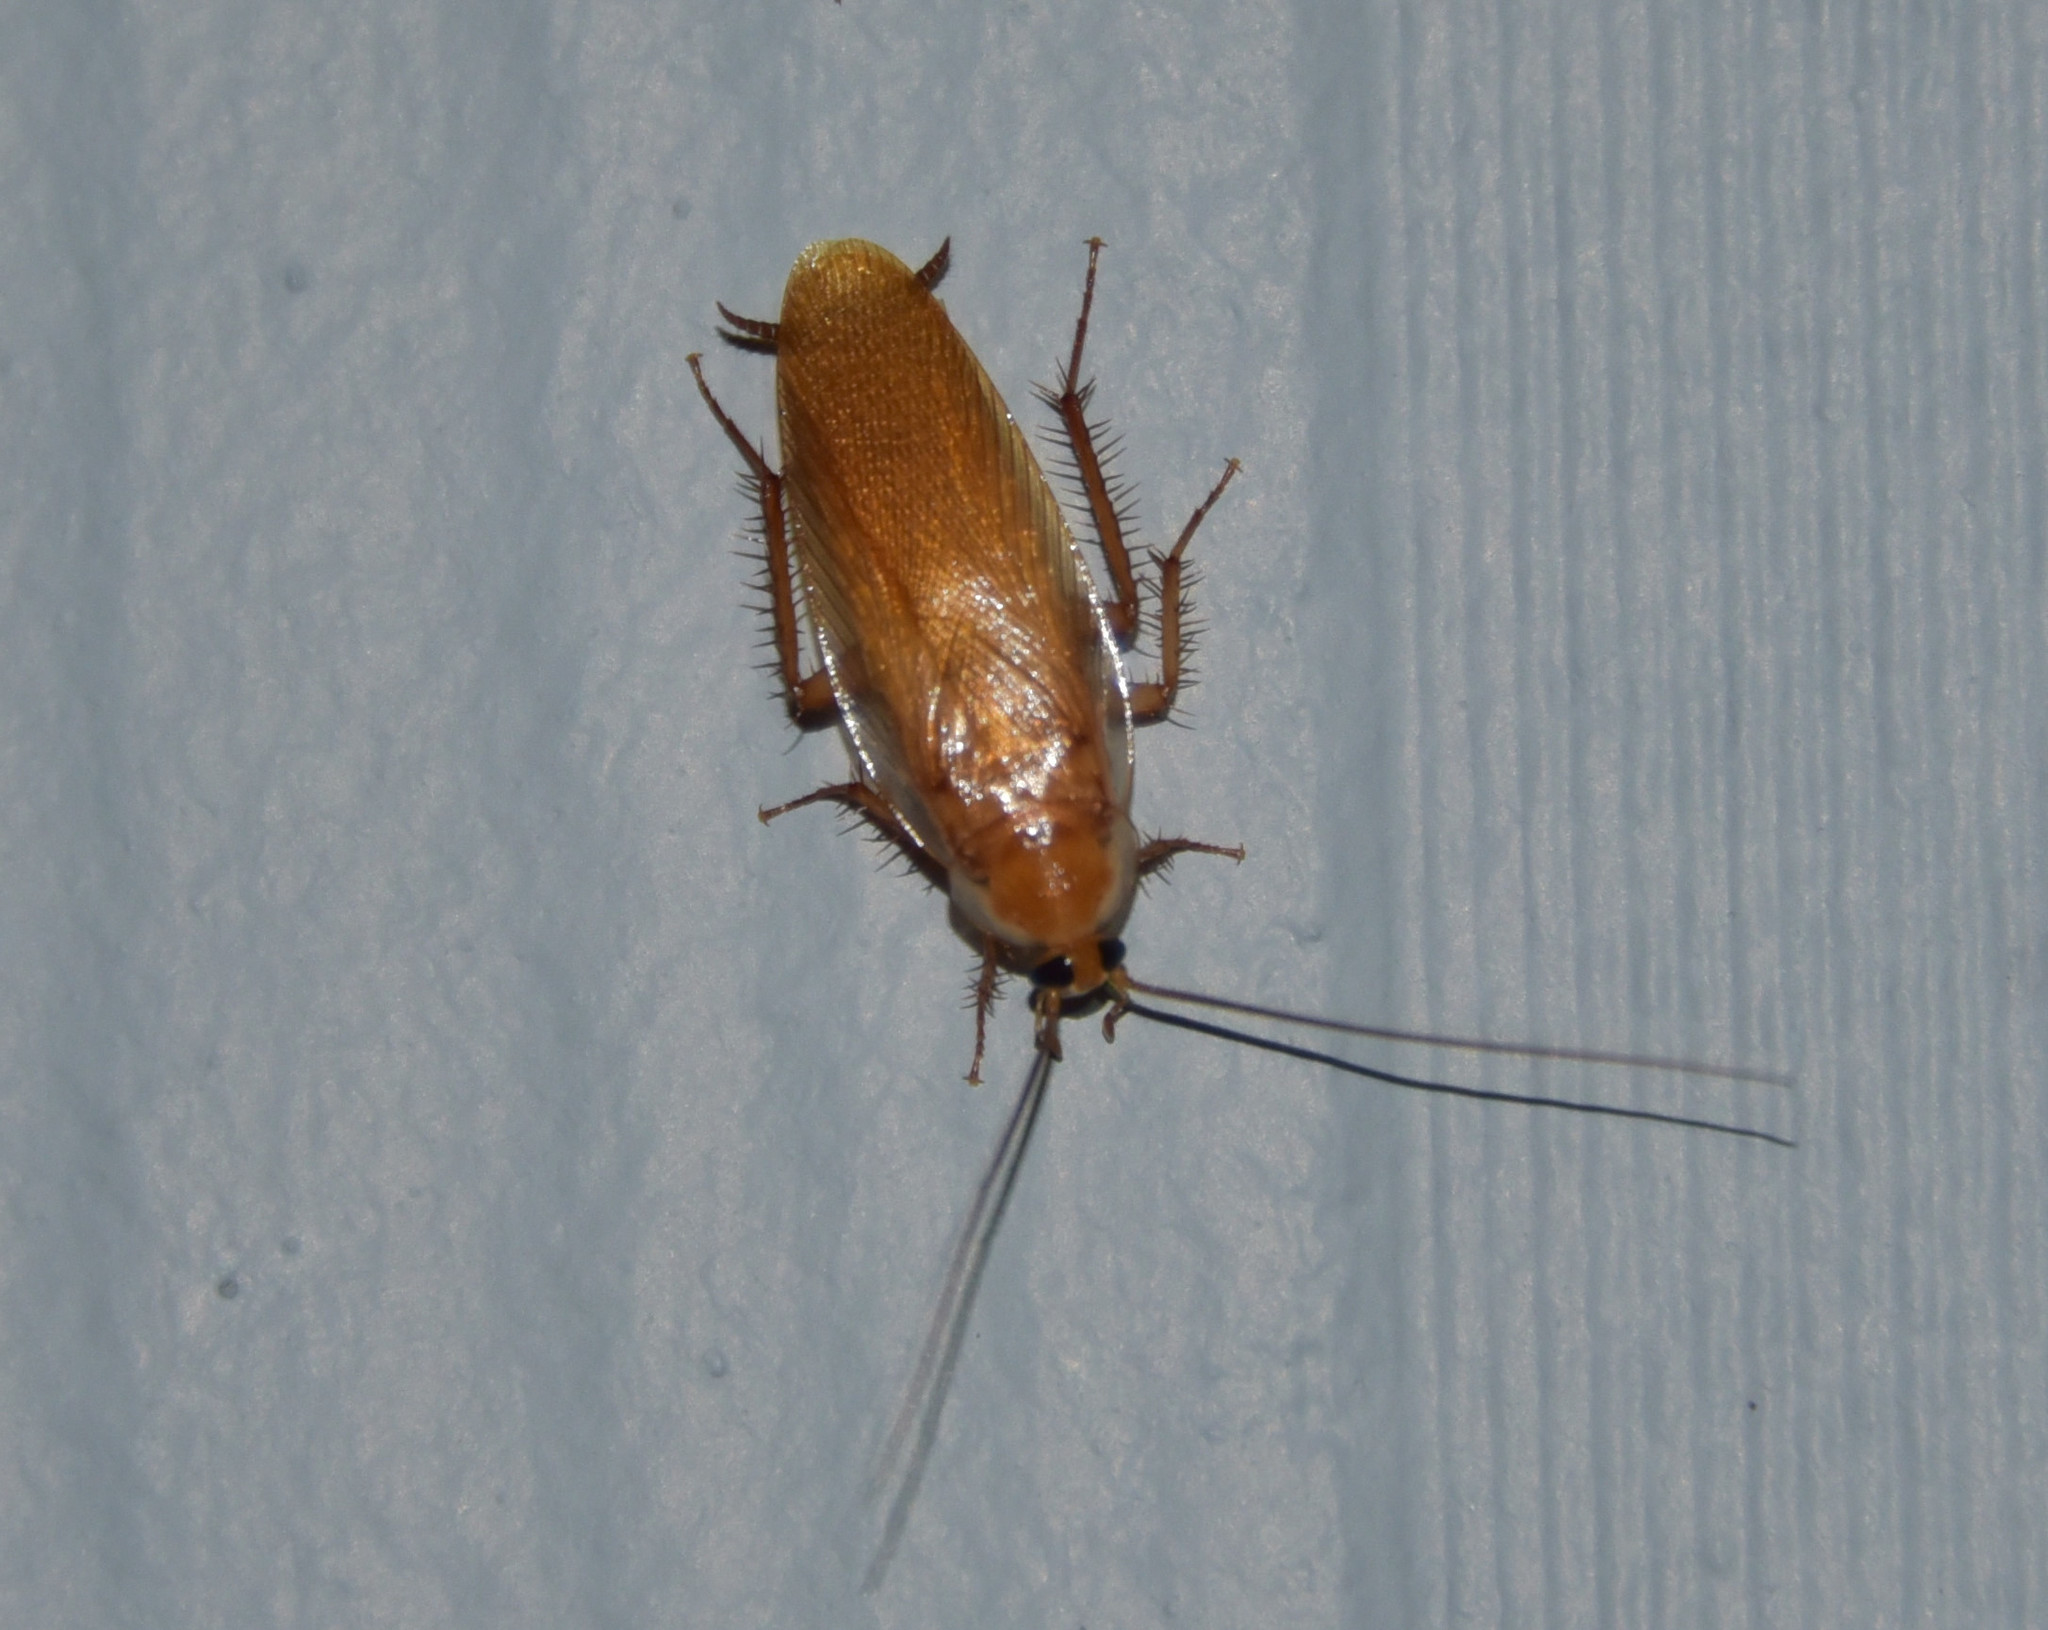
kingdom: Animalia
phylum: Arthropoda
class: Insecta
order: Blattodea
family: Blattidae
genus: Periplaneta
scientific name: Periplaneta lateralis
